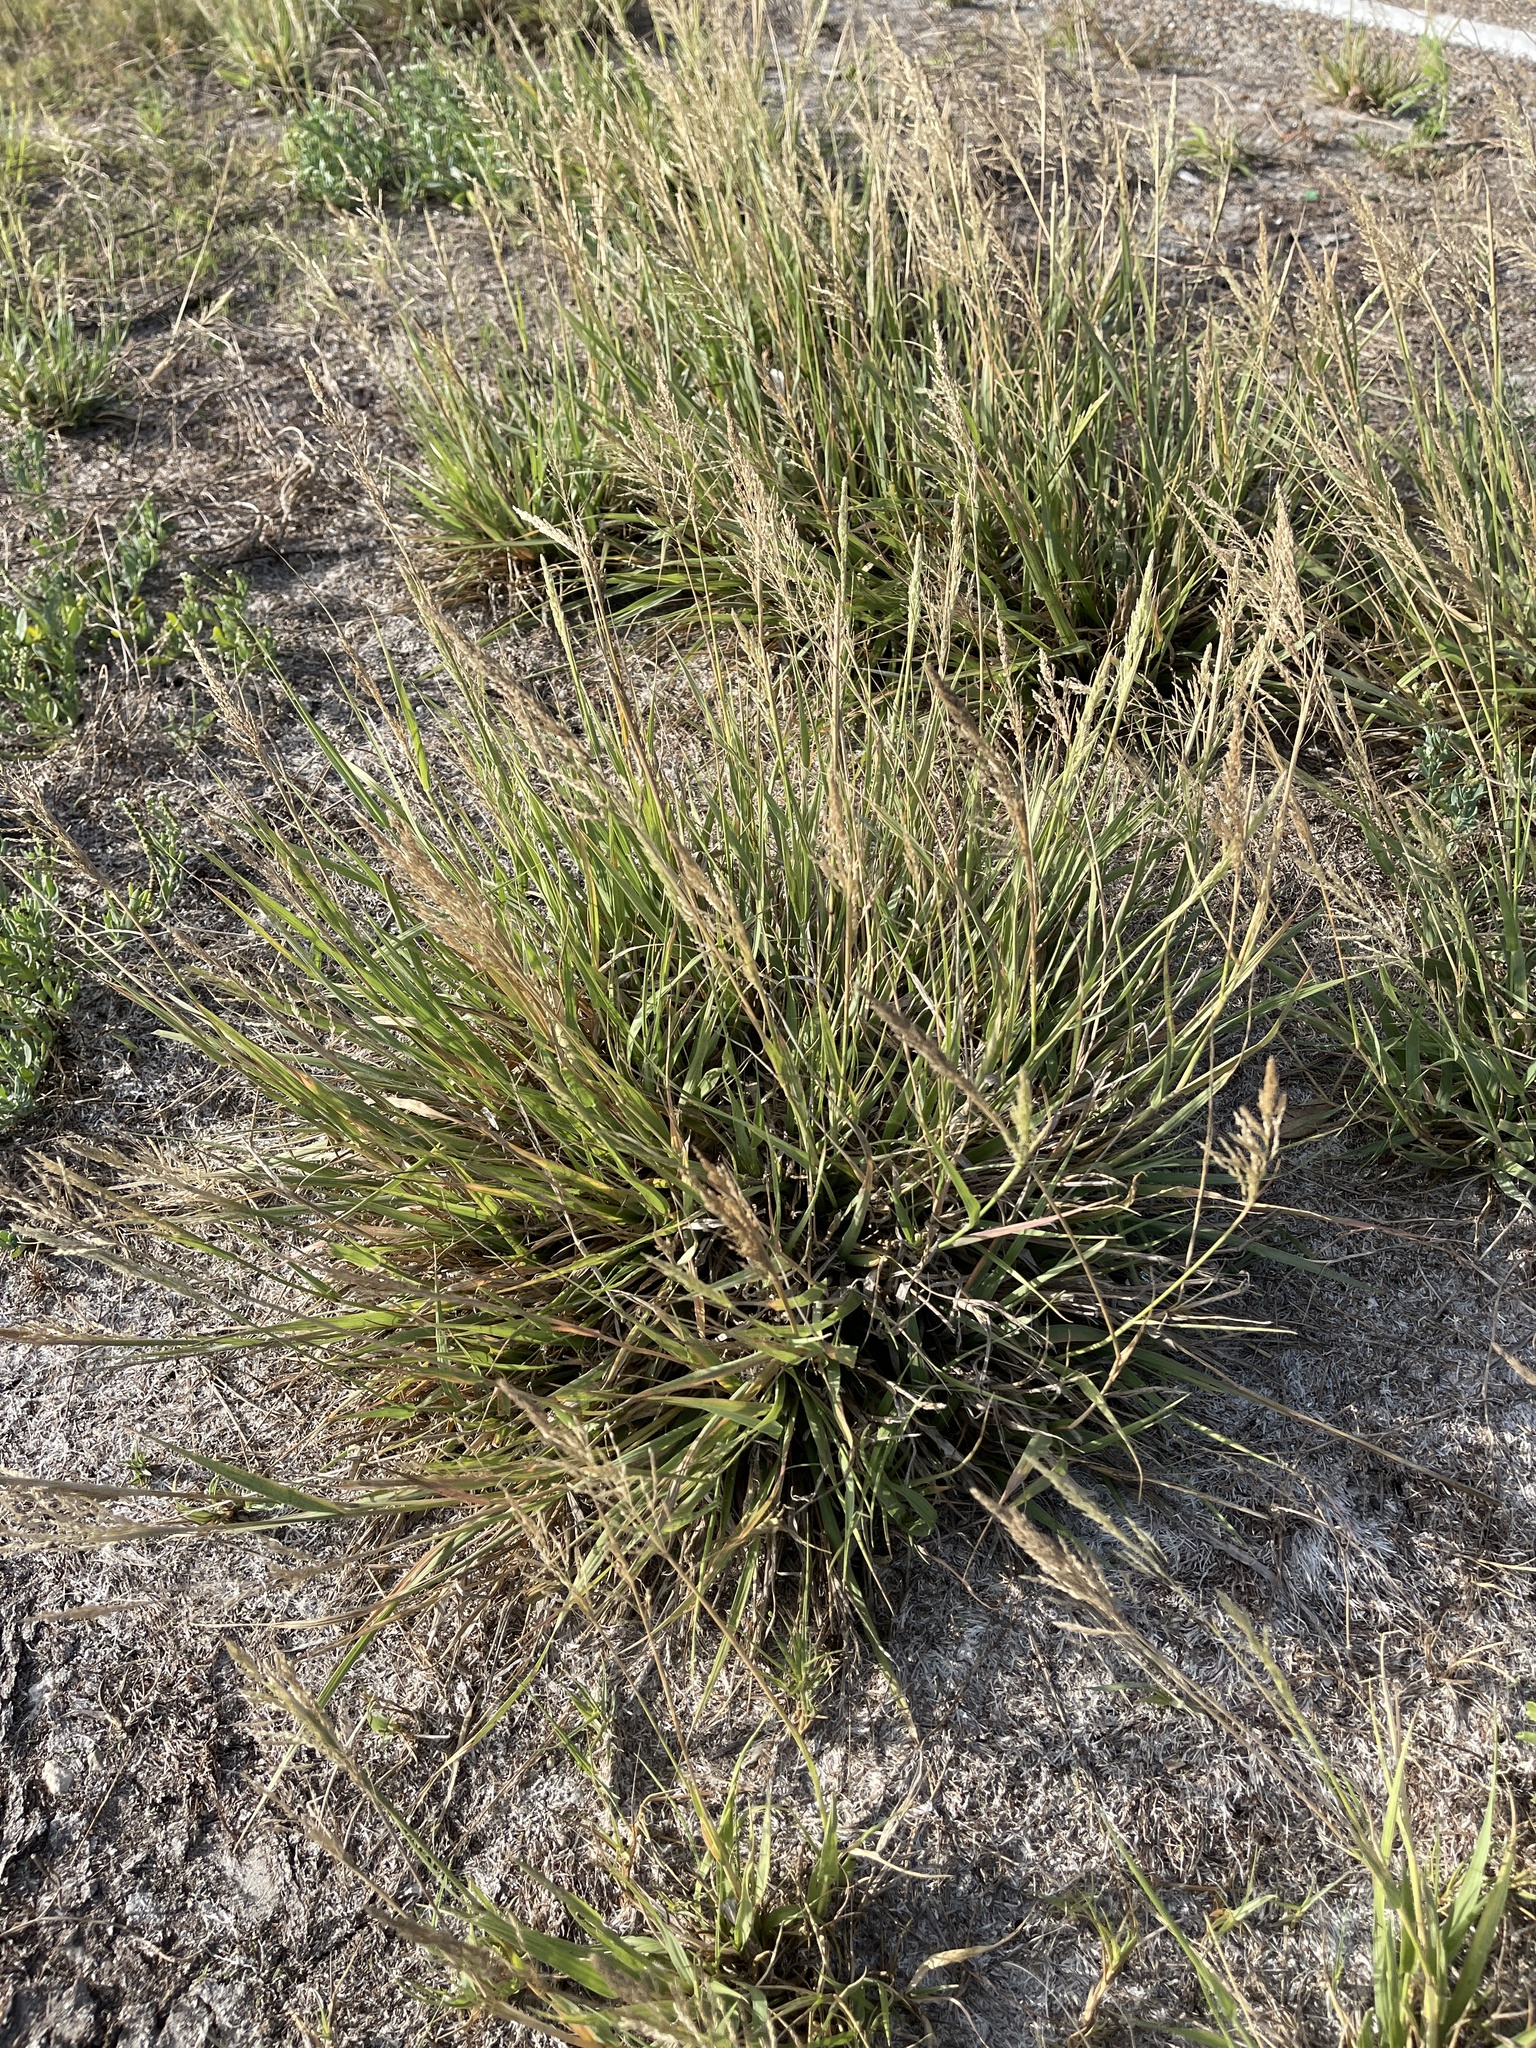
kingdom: Plantae
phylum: Tracheophyta
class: Liliopsida
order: Poales
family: Poaceae
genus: Sporobolus
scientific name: Sporobolus pyramidatus
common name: Whorled dropseed
